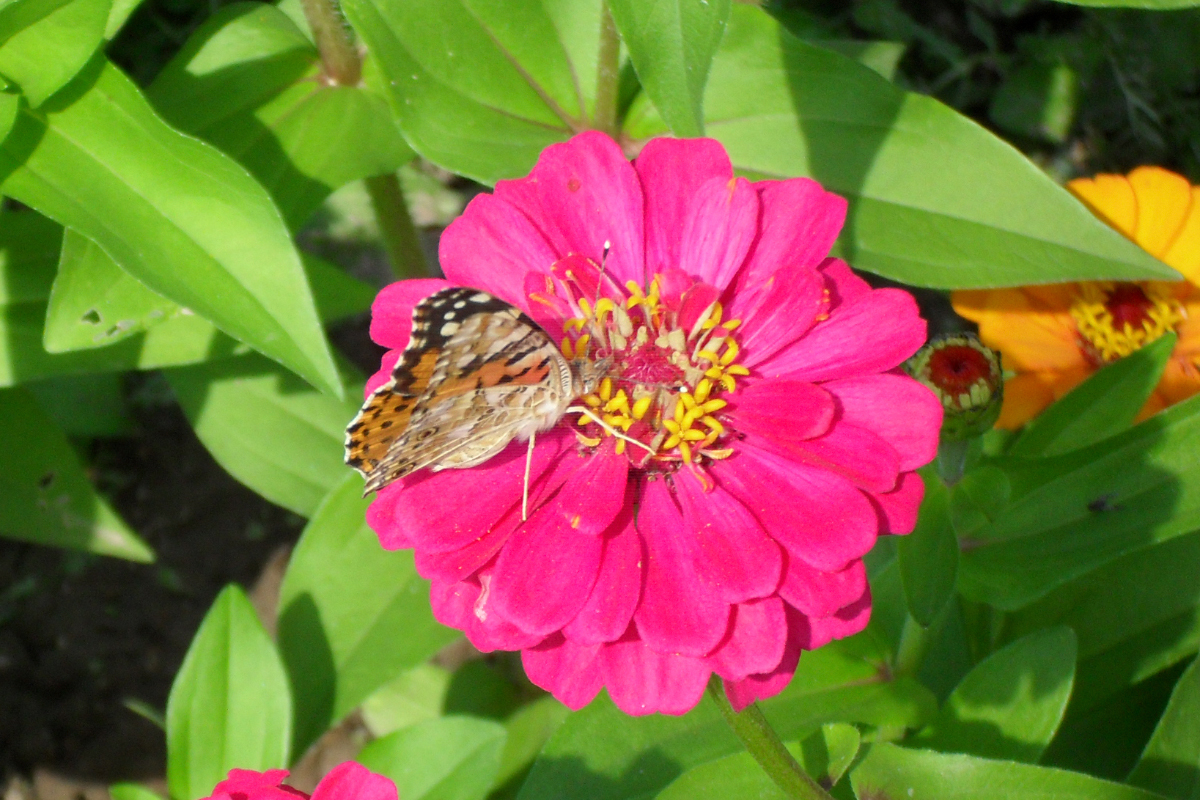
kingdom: Animalia
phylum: Arthropoda
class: Insecta
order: Lepidoptera
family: Nymphalidae
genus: Vanessa
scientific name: Vanessa cardui
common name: Painted lady
